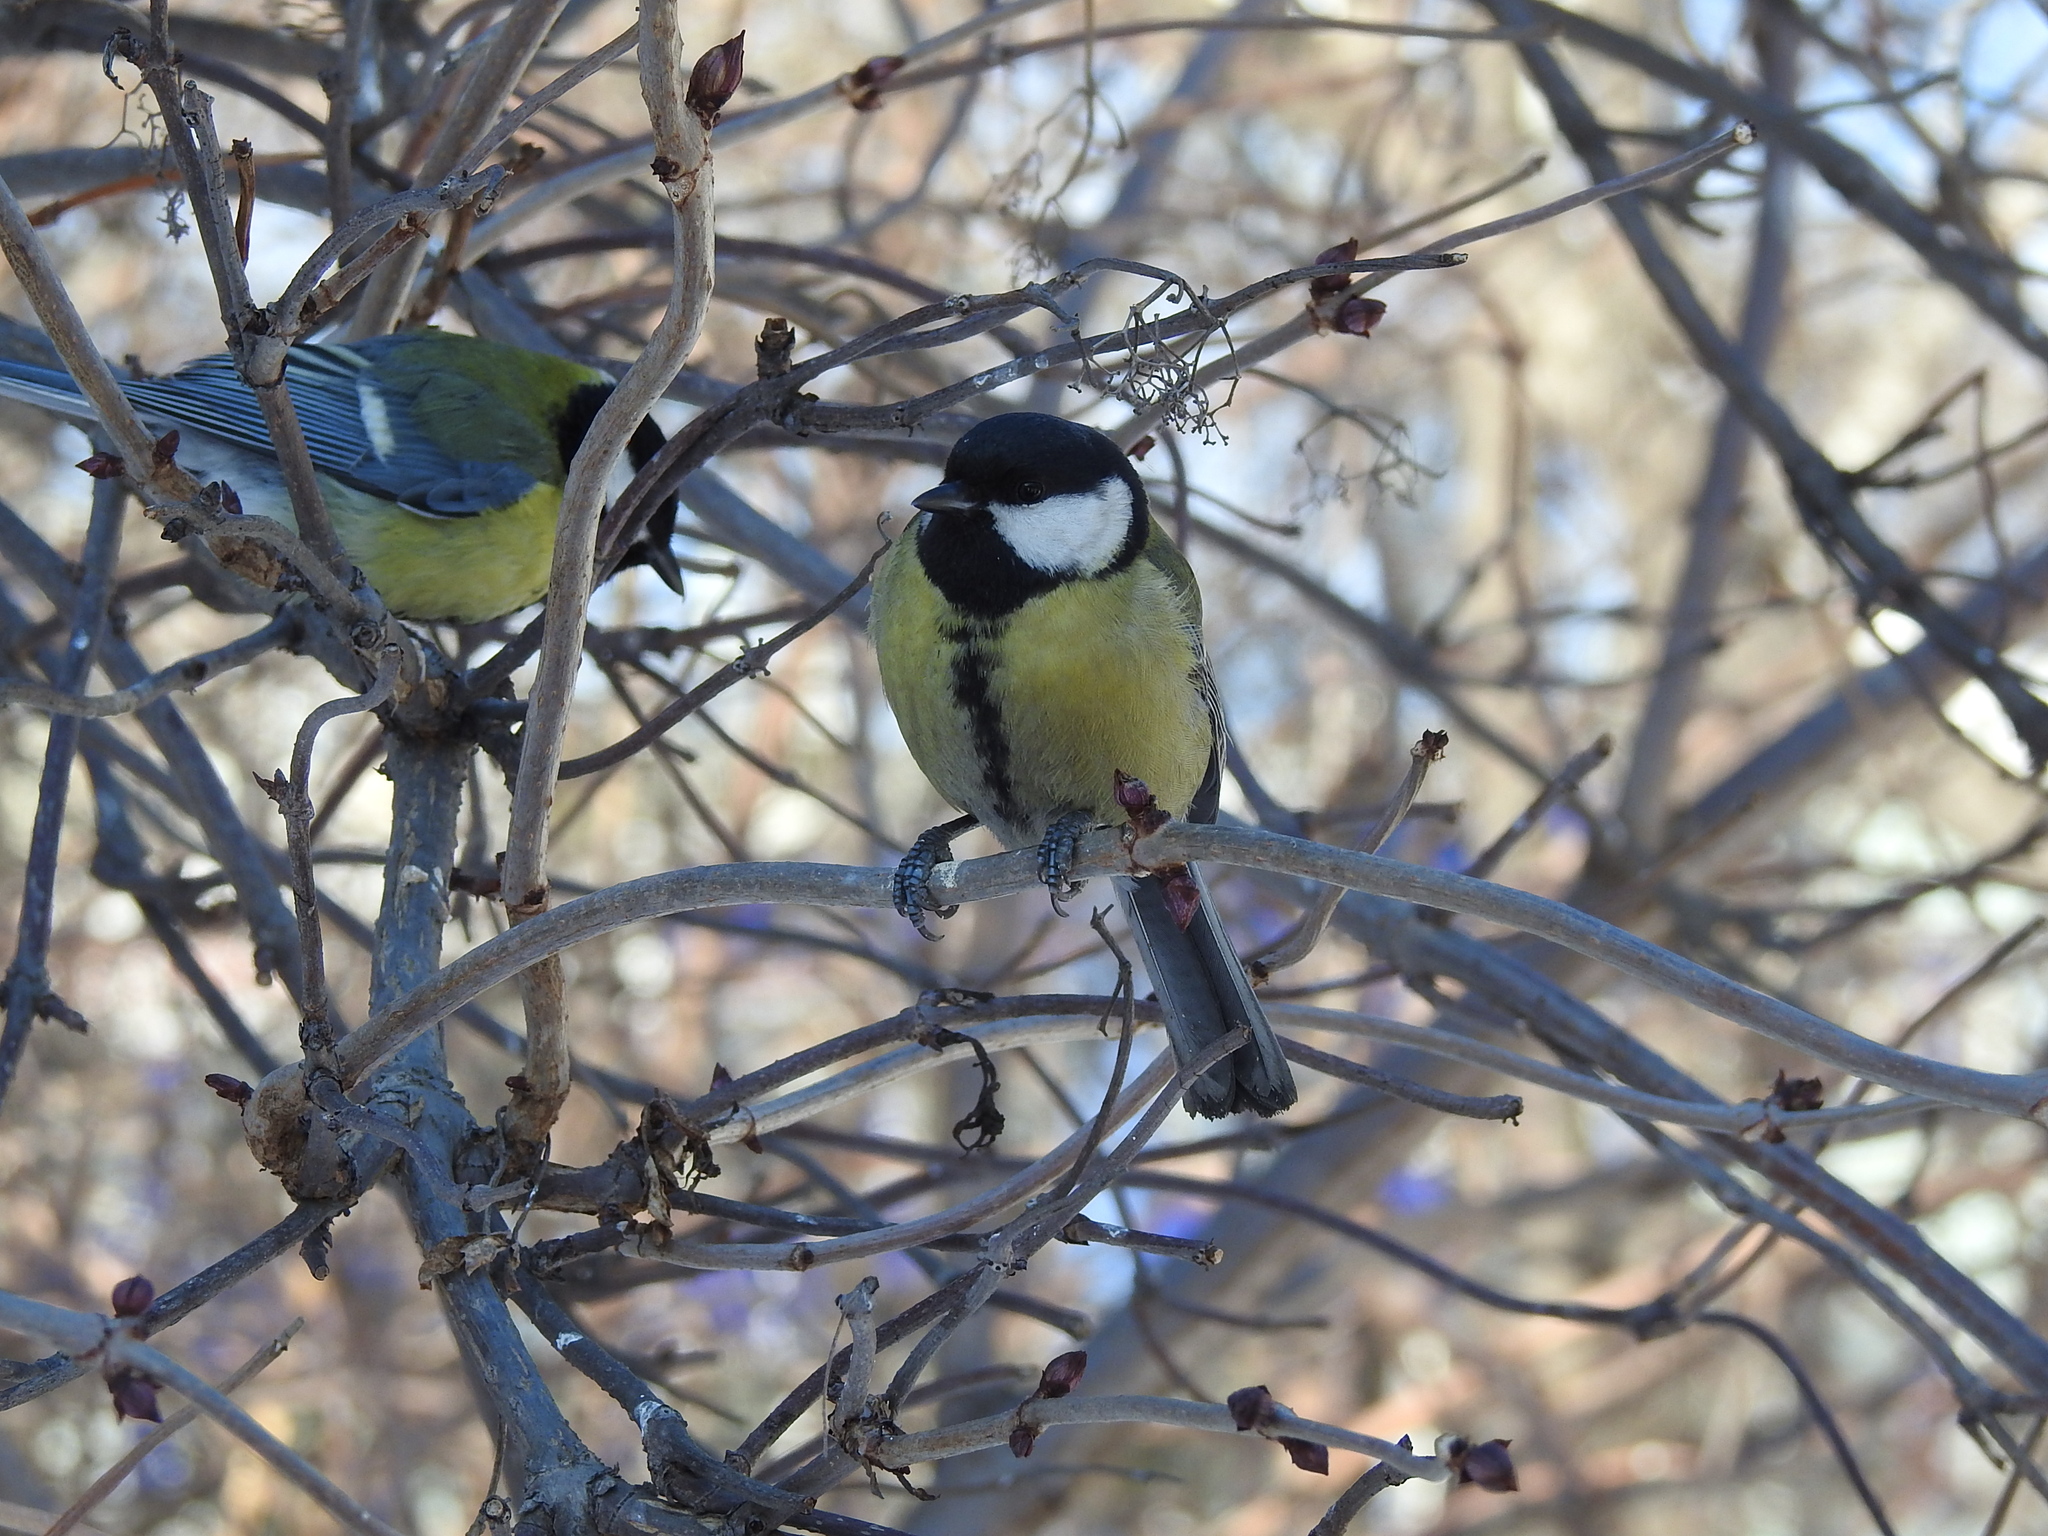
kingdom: Animalia
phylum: Chordata
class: Aves
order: Passeriformes
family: Paridae
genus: Parus
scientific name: Parus major
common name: Great tit
